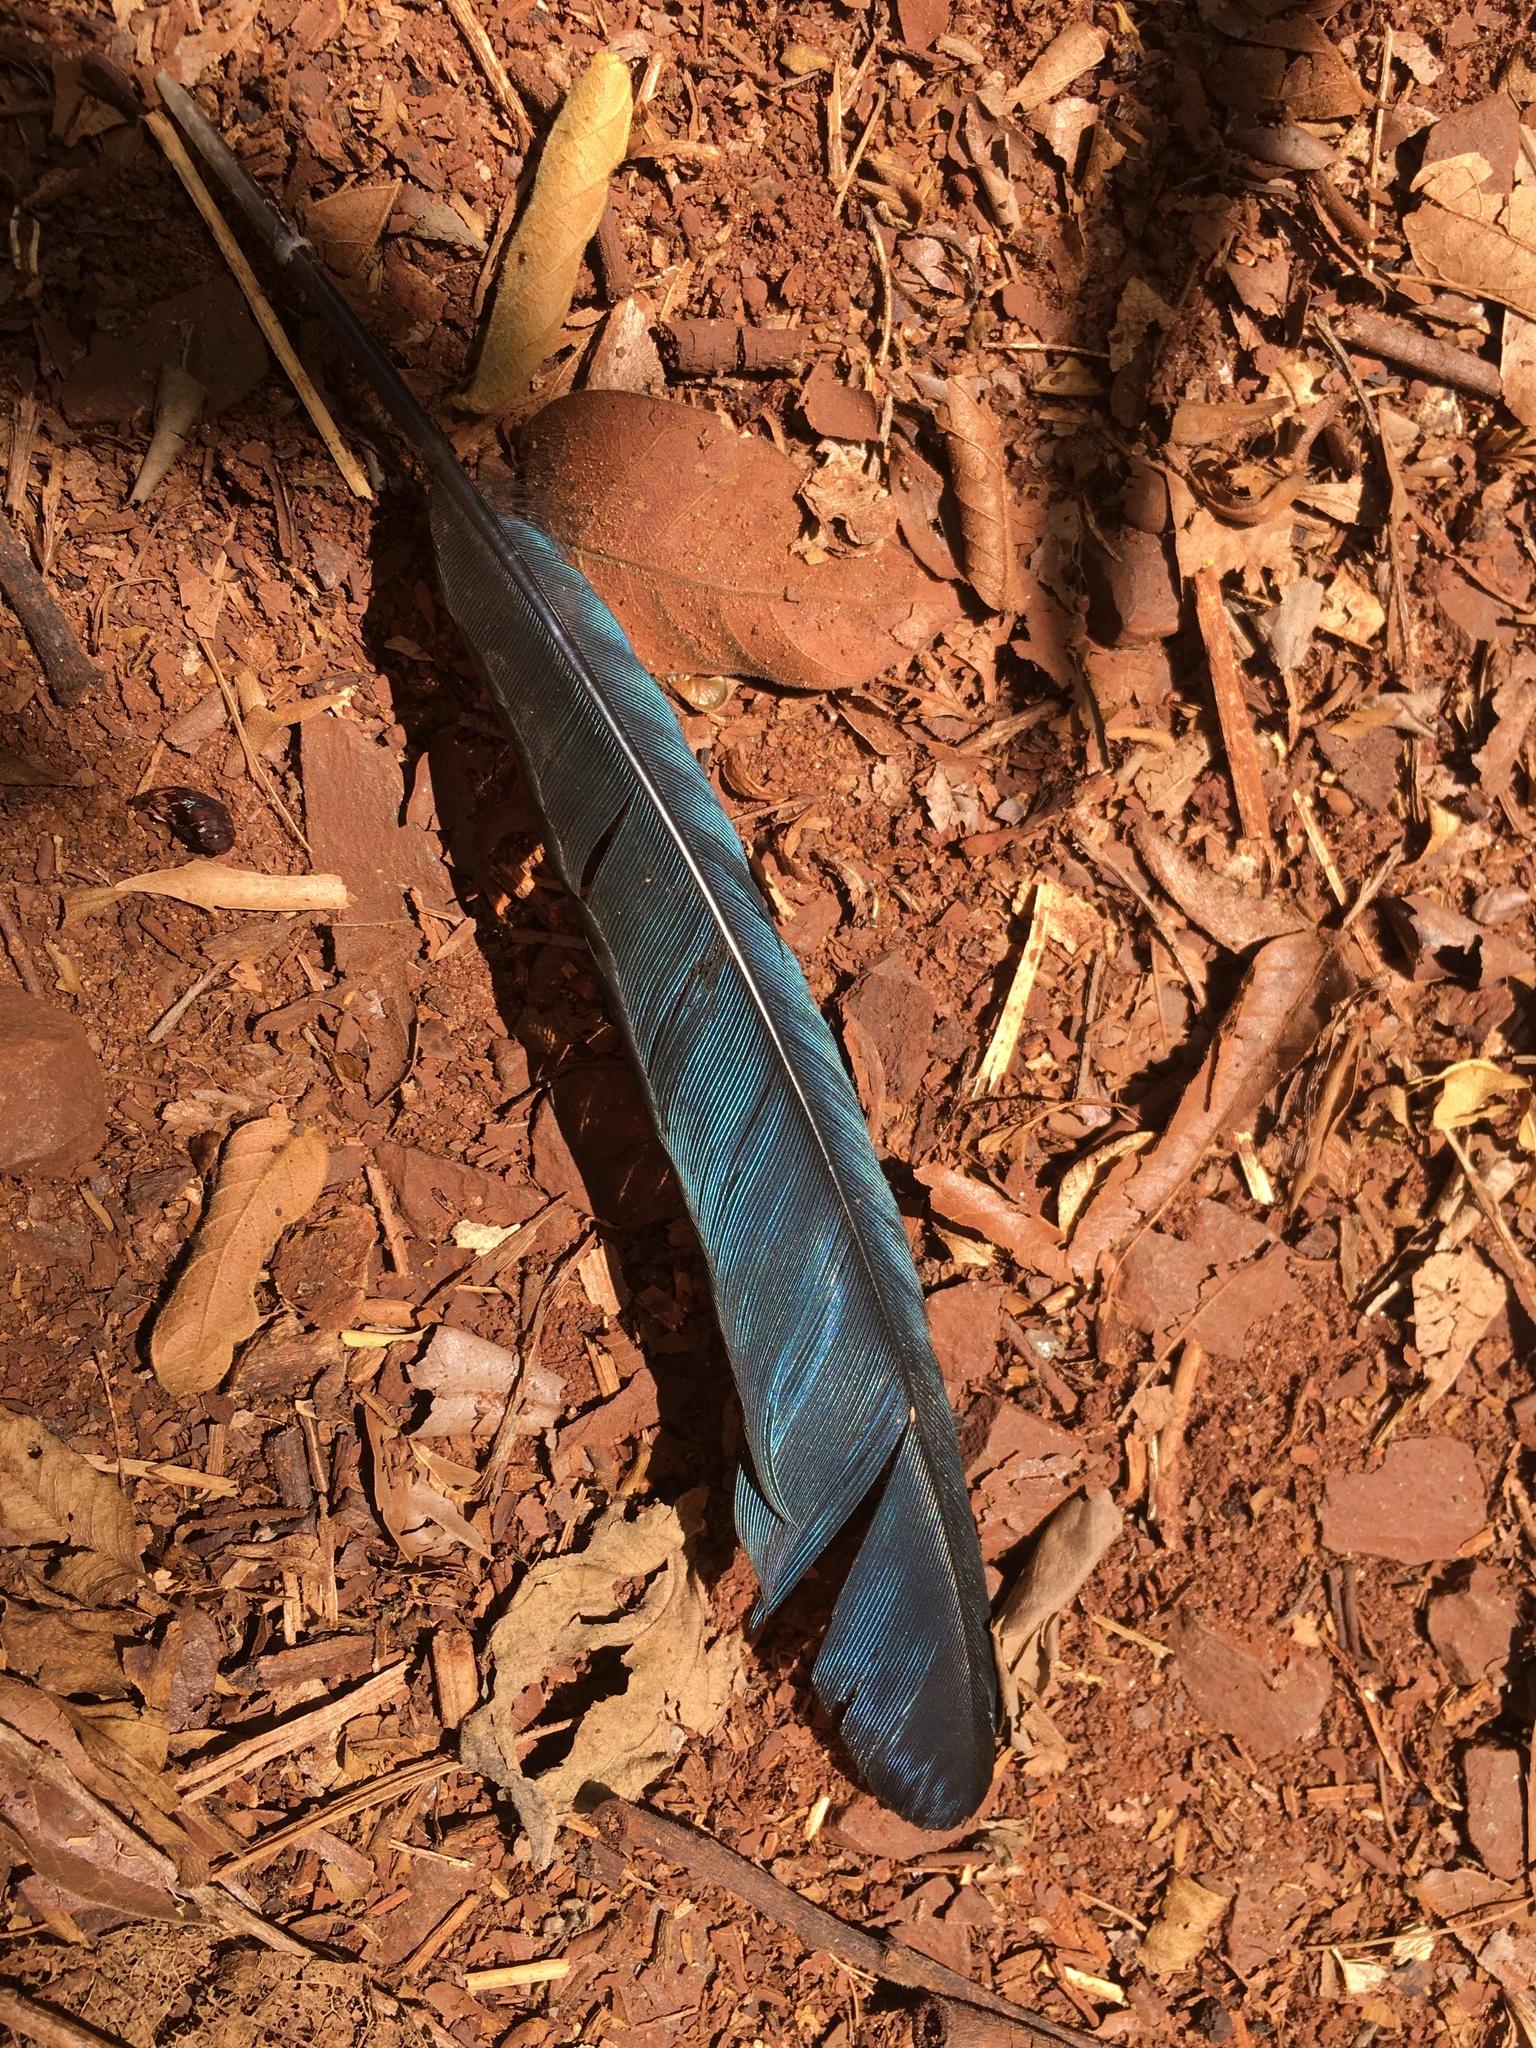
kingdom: Animalia
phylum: Chordata
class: Aves
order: Cuculiformes
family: Cuculidae
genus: Crotophaga
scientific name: Crotophaga major
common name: Greater ani
